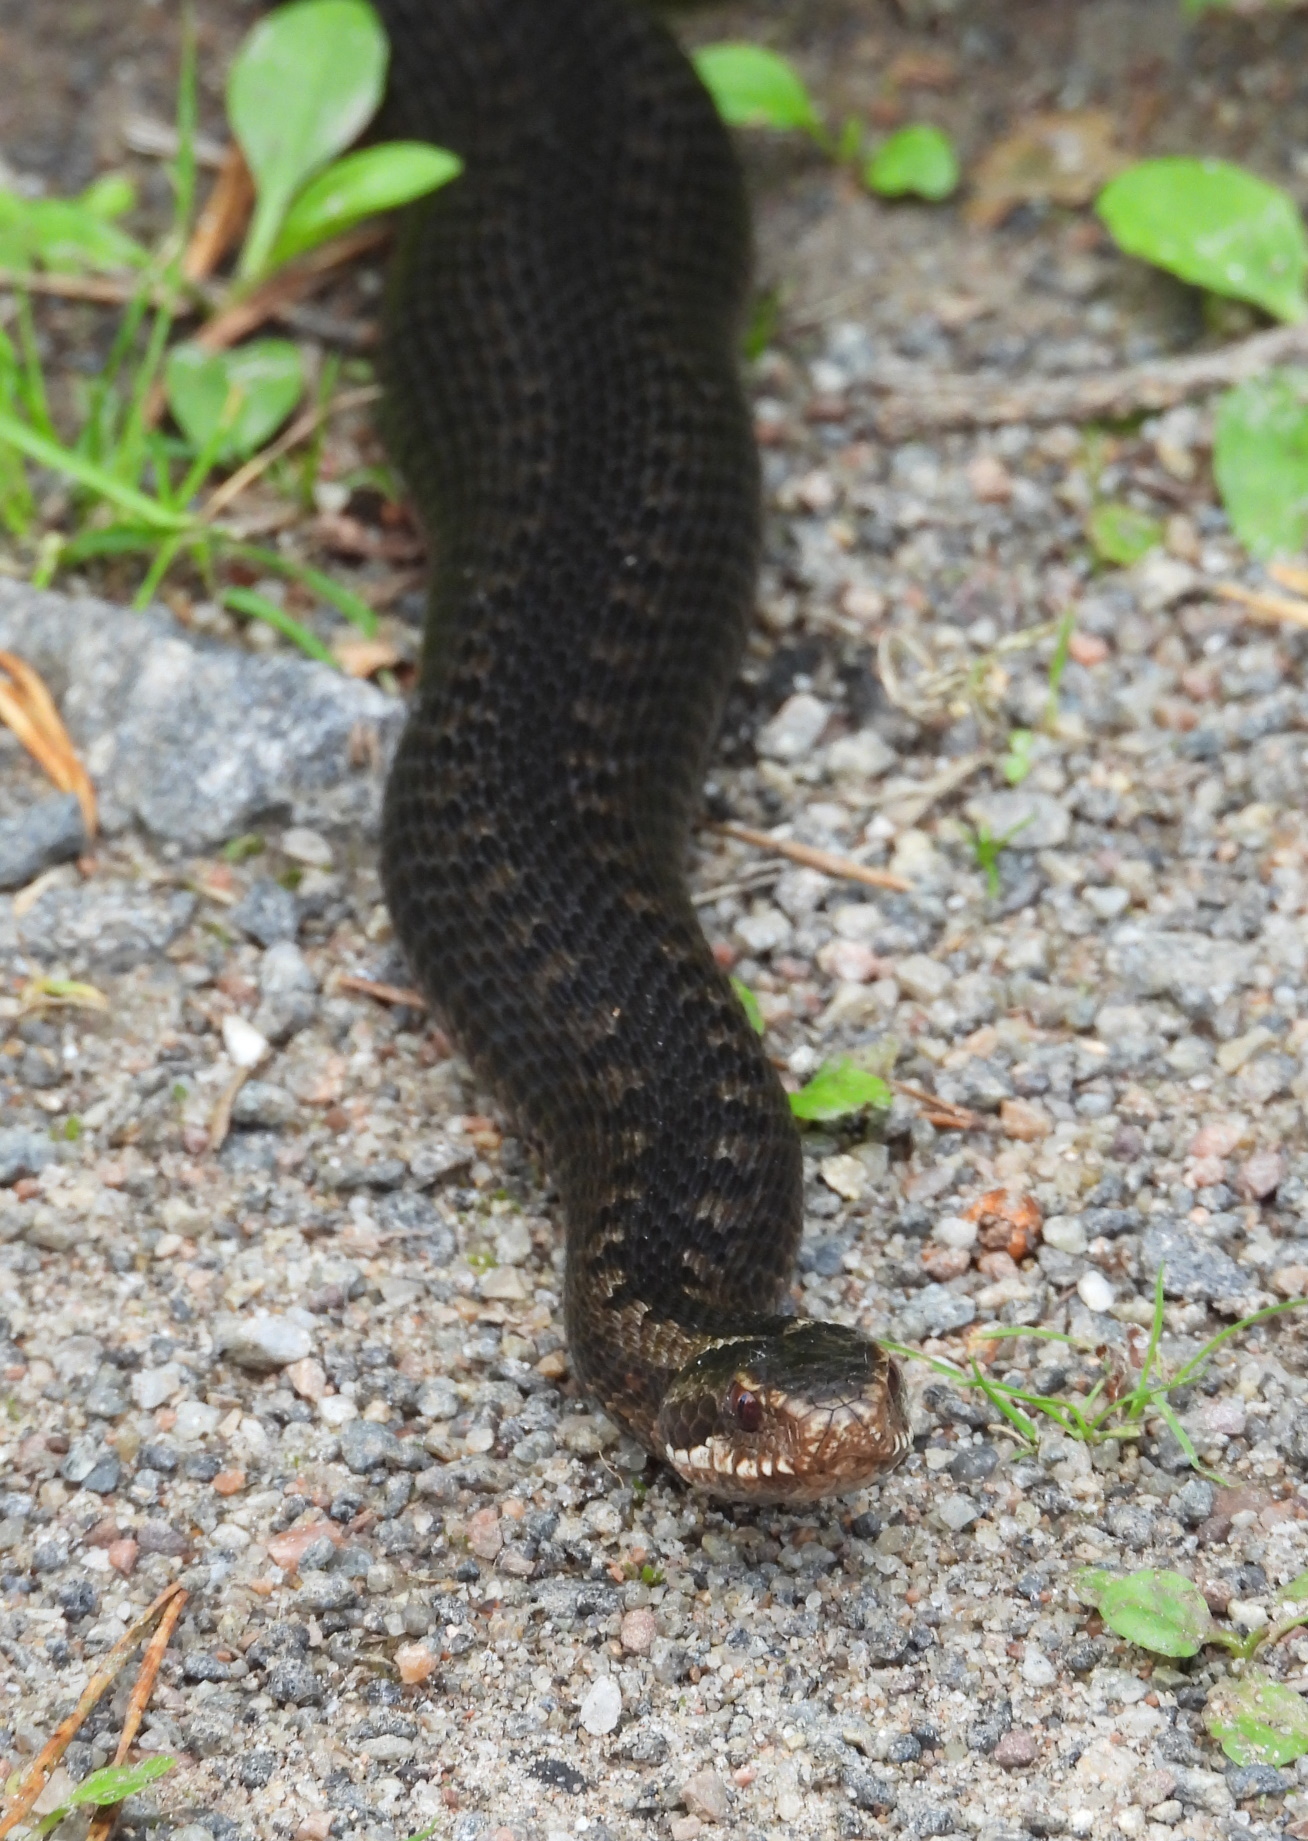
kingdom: Animalia
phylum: Chordata
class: Squamata
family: Viperidae
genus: Vipera
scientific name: Vipera berus
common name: Adder
